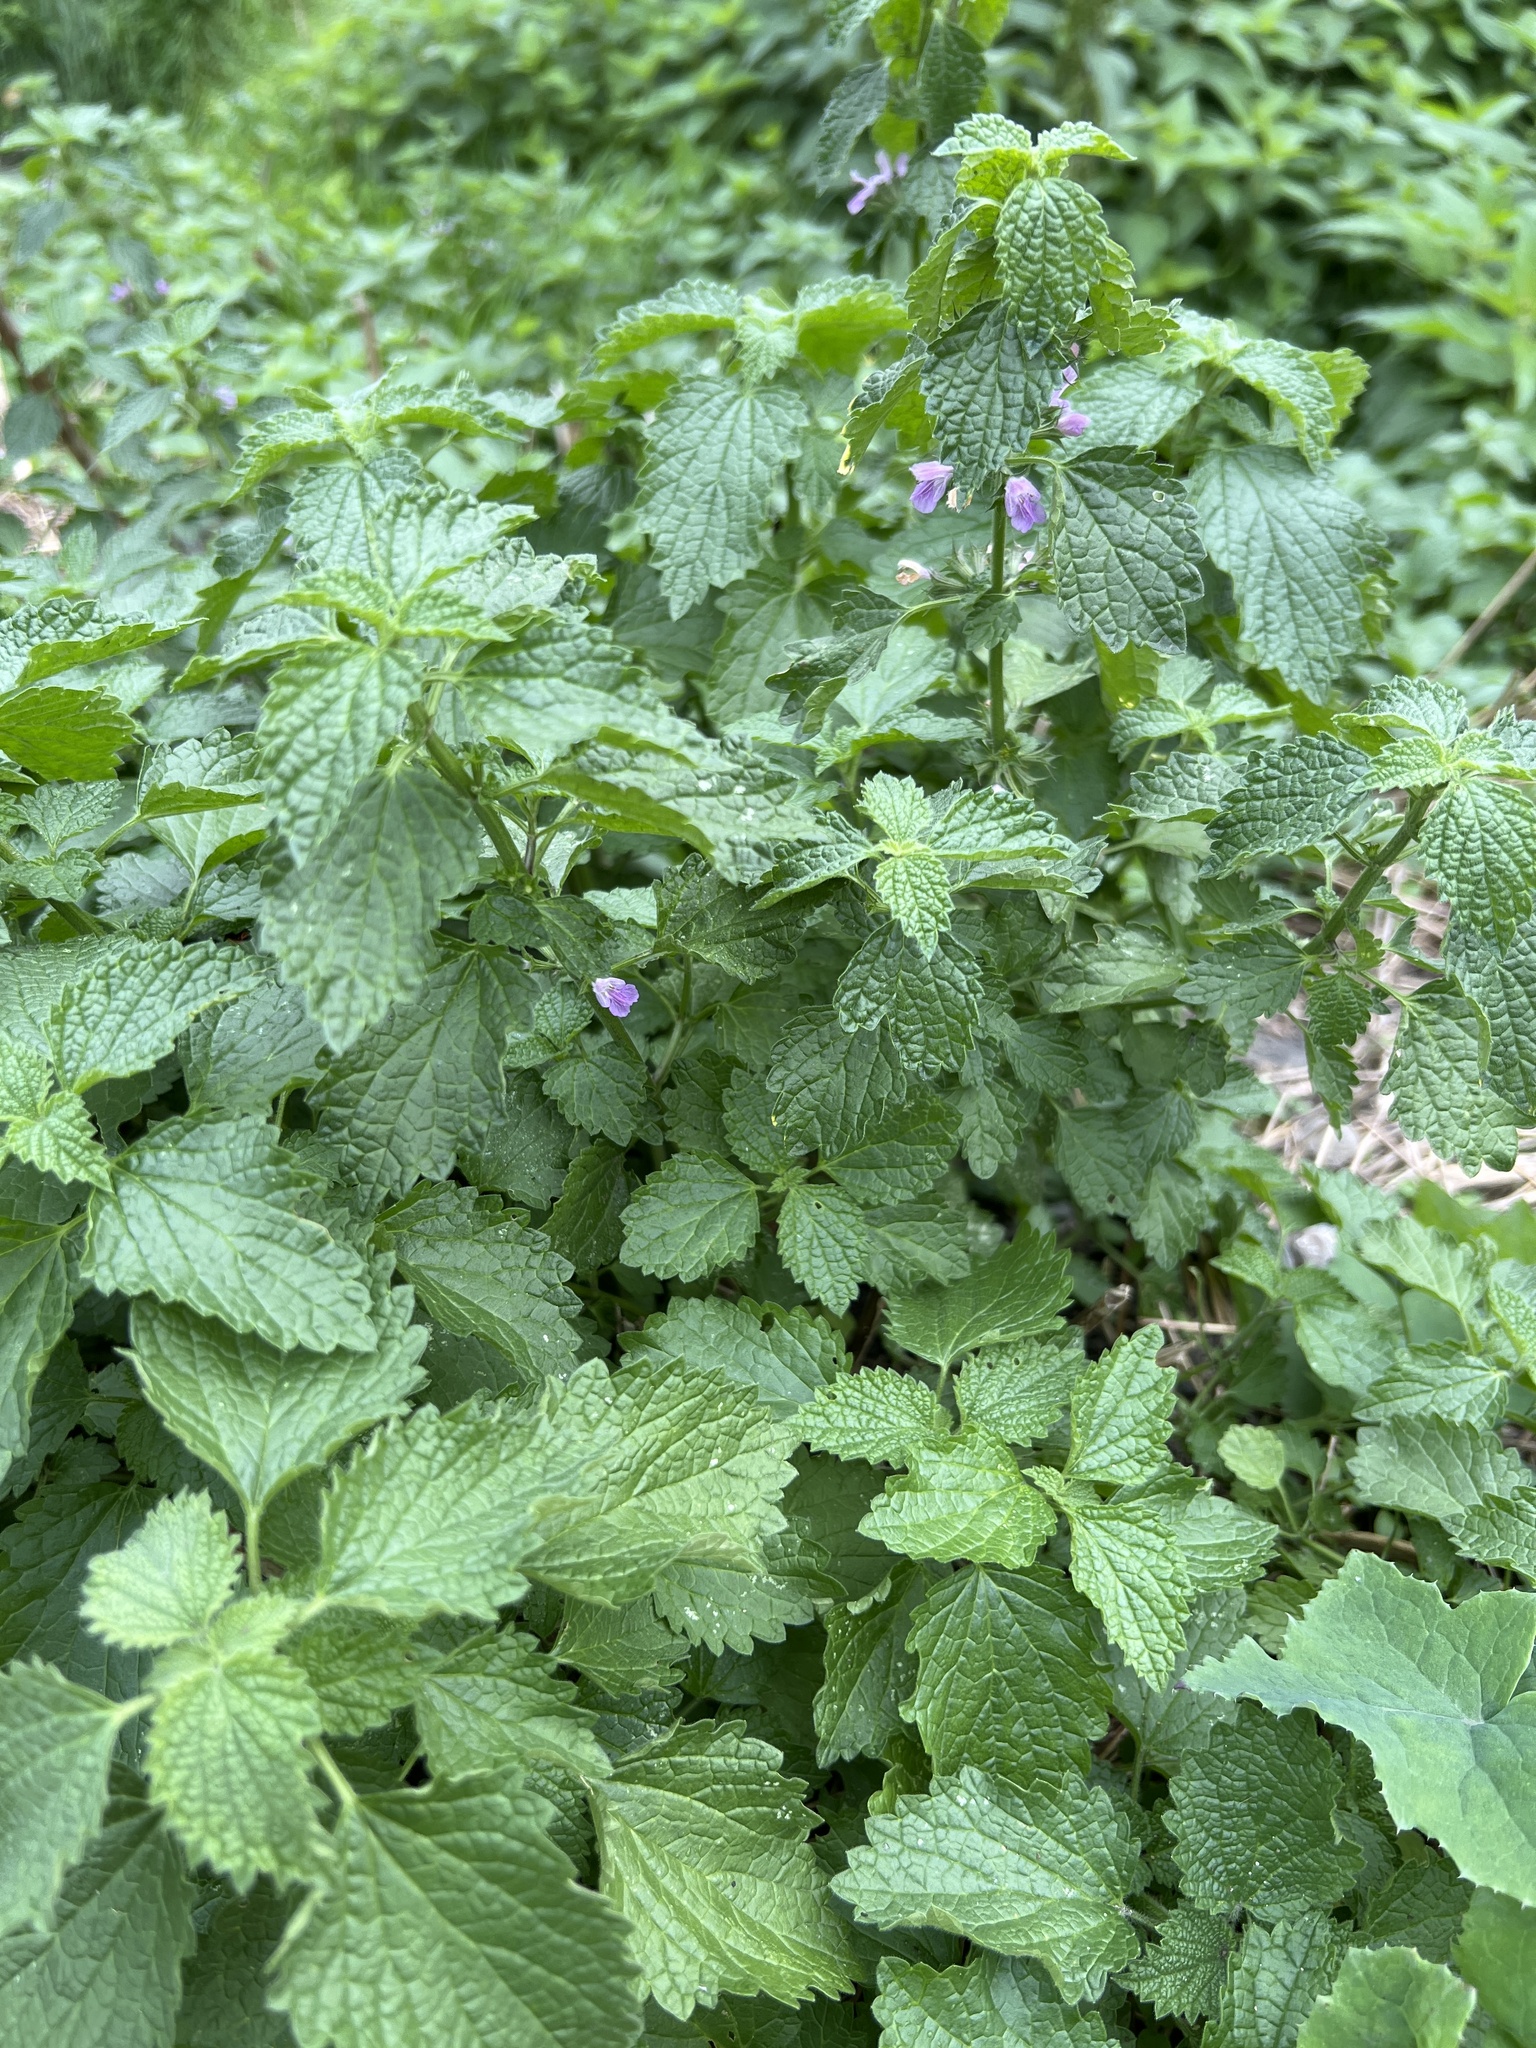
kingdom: Plantae
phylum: Tracheophyta
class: Magnoliopsida
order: Lamiales
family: Lamiaceae
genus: Ballota
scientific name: Ballota nigra
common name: Black horehound
